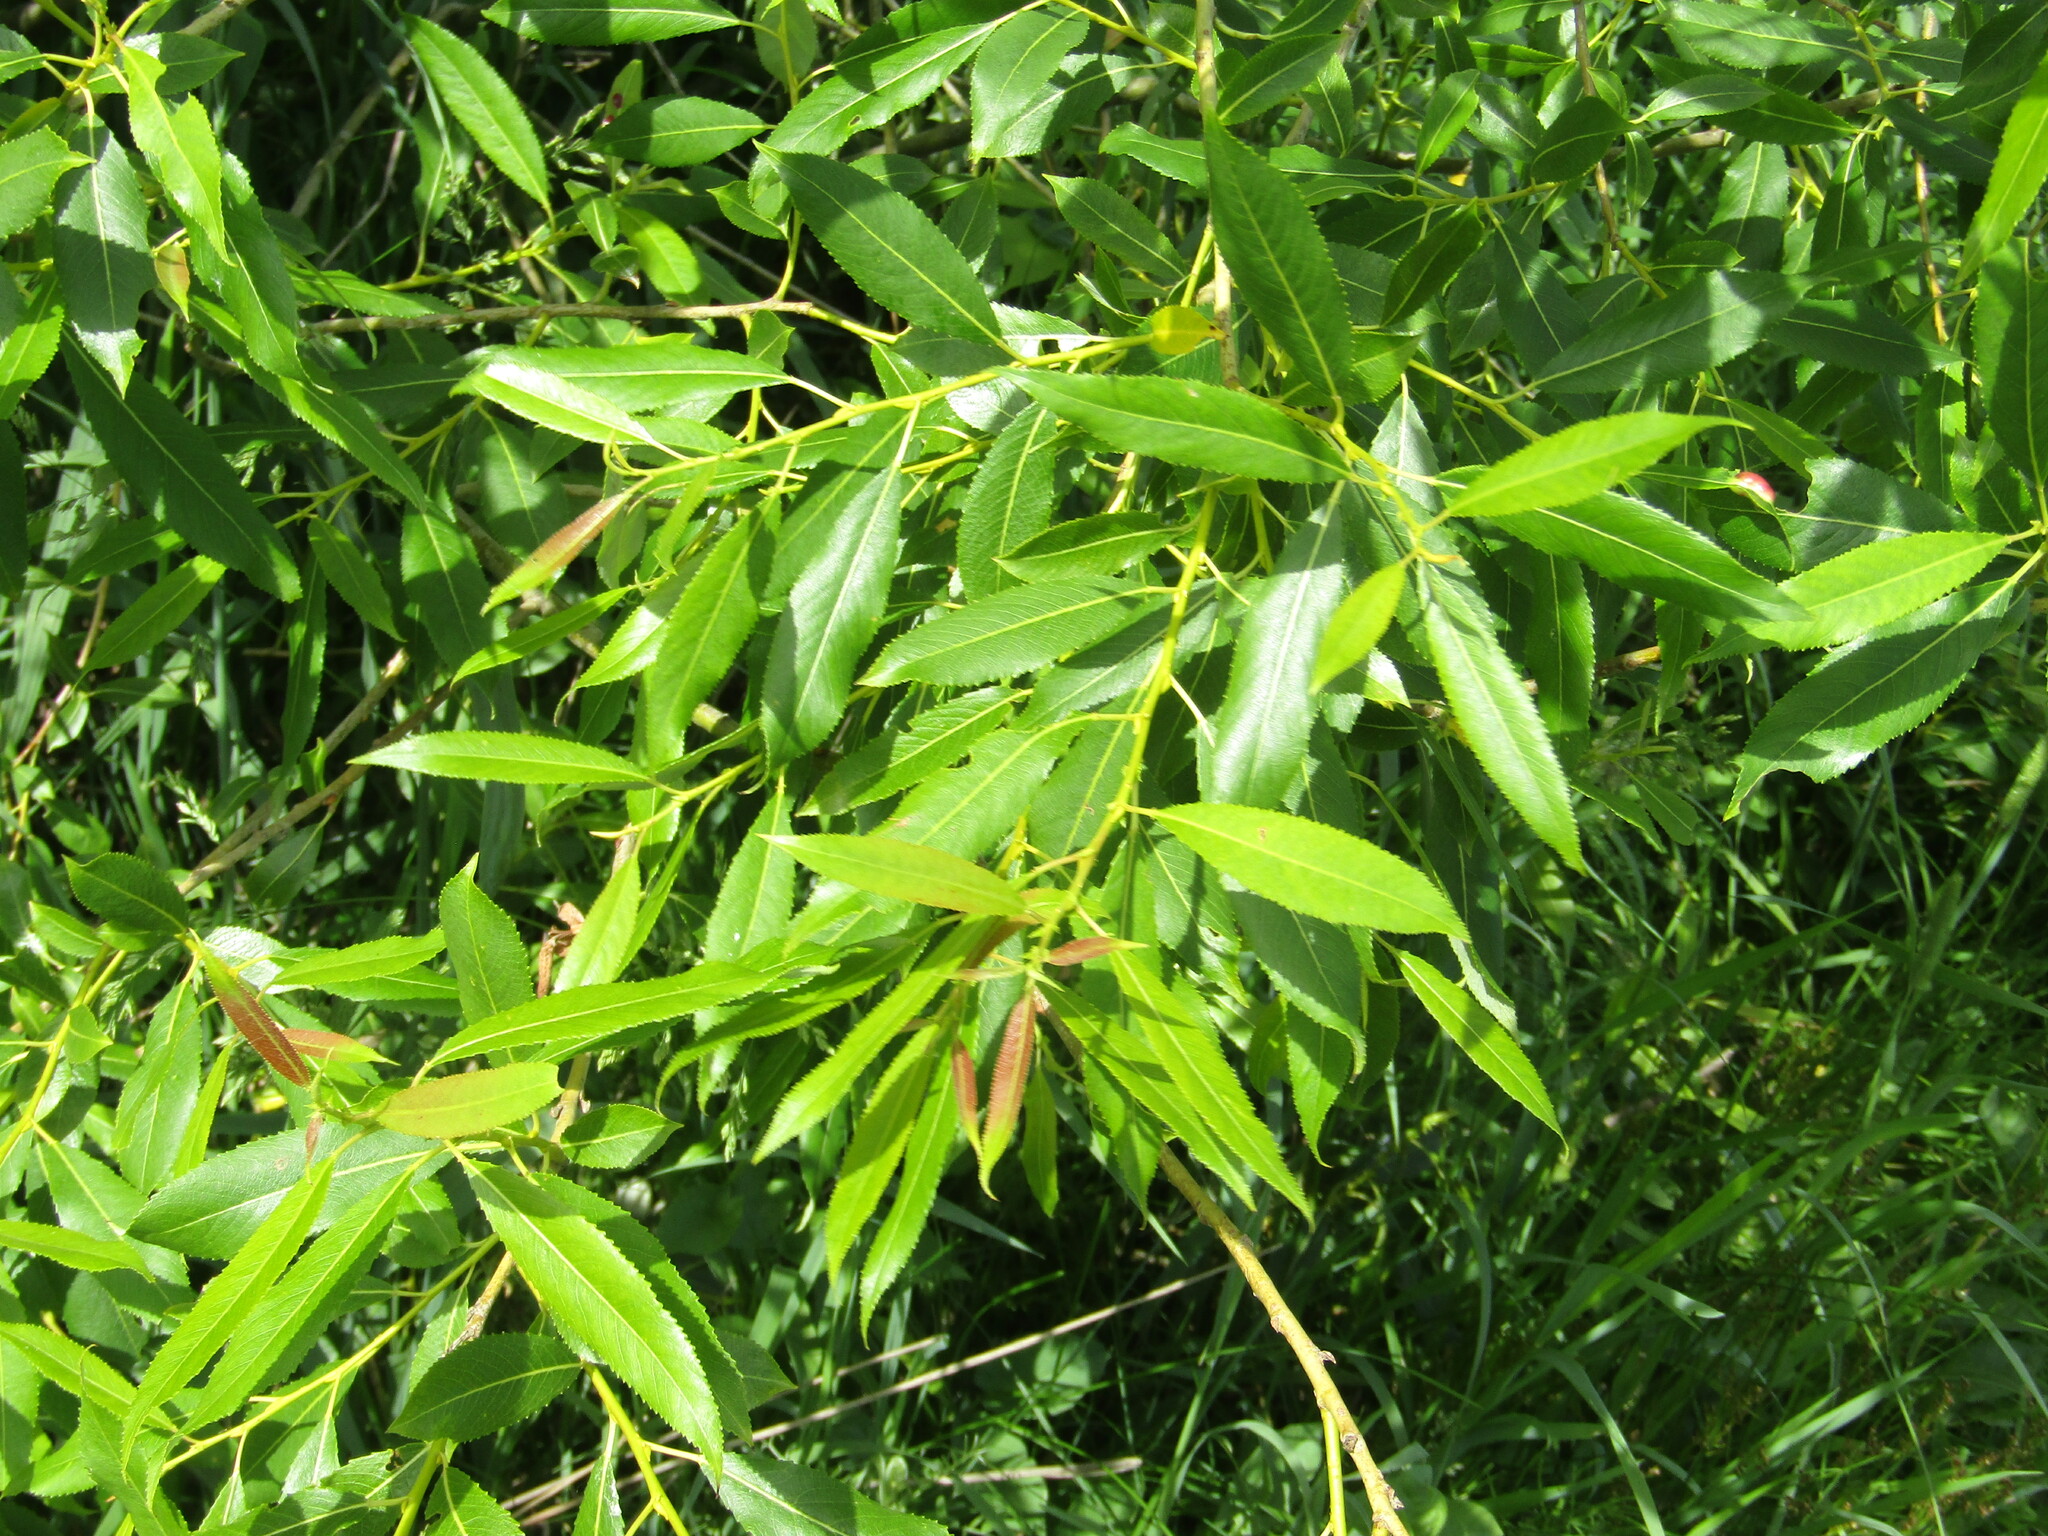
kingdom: Plantae
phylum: Tracheophyta
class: Magnoliopsida
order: Malpighiales
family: Salicaceae
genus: Salix
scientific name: Salix triandra
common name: Almond willow
